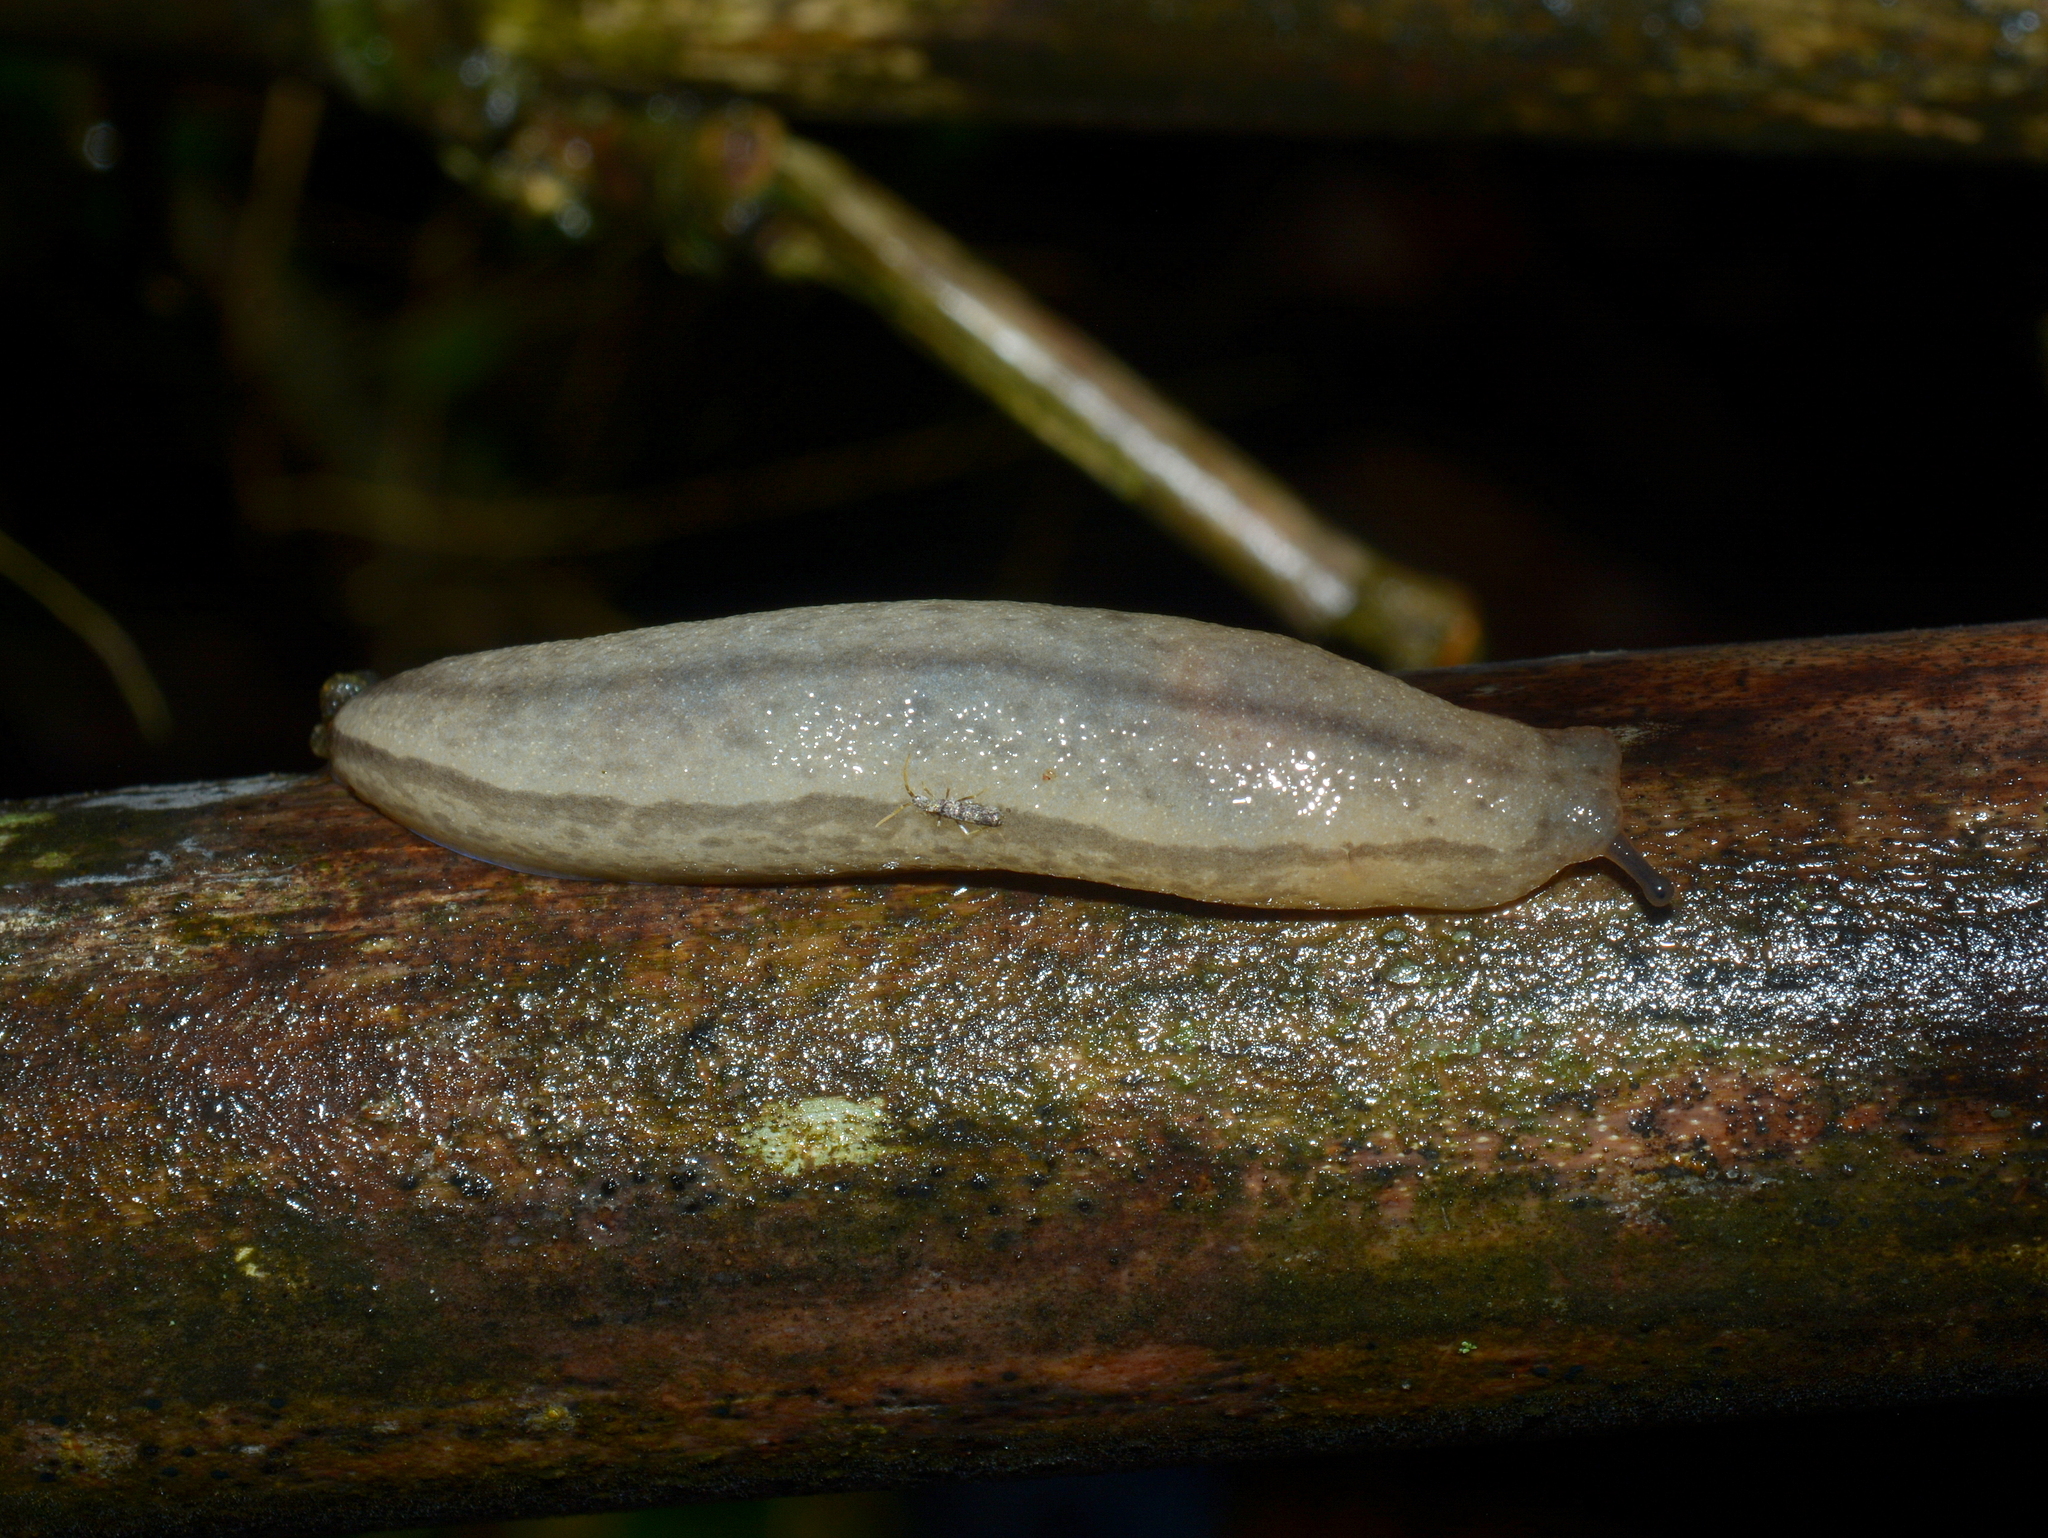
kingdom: Animalia
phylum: Mollusca
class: Gastropoda
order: Stylommatophora
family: Philomycidae
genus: Meghimatium
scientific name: Meghimatium pictum
